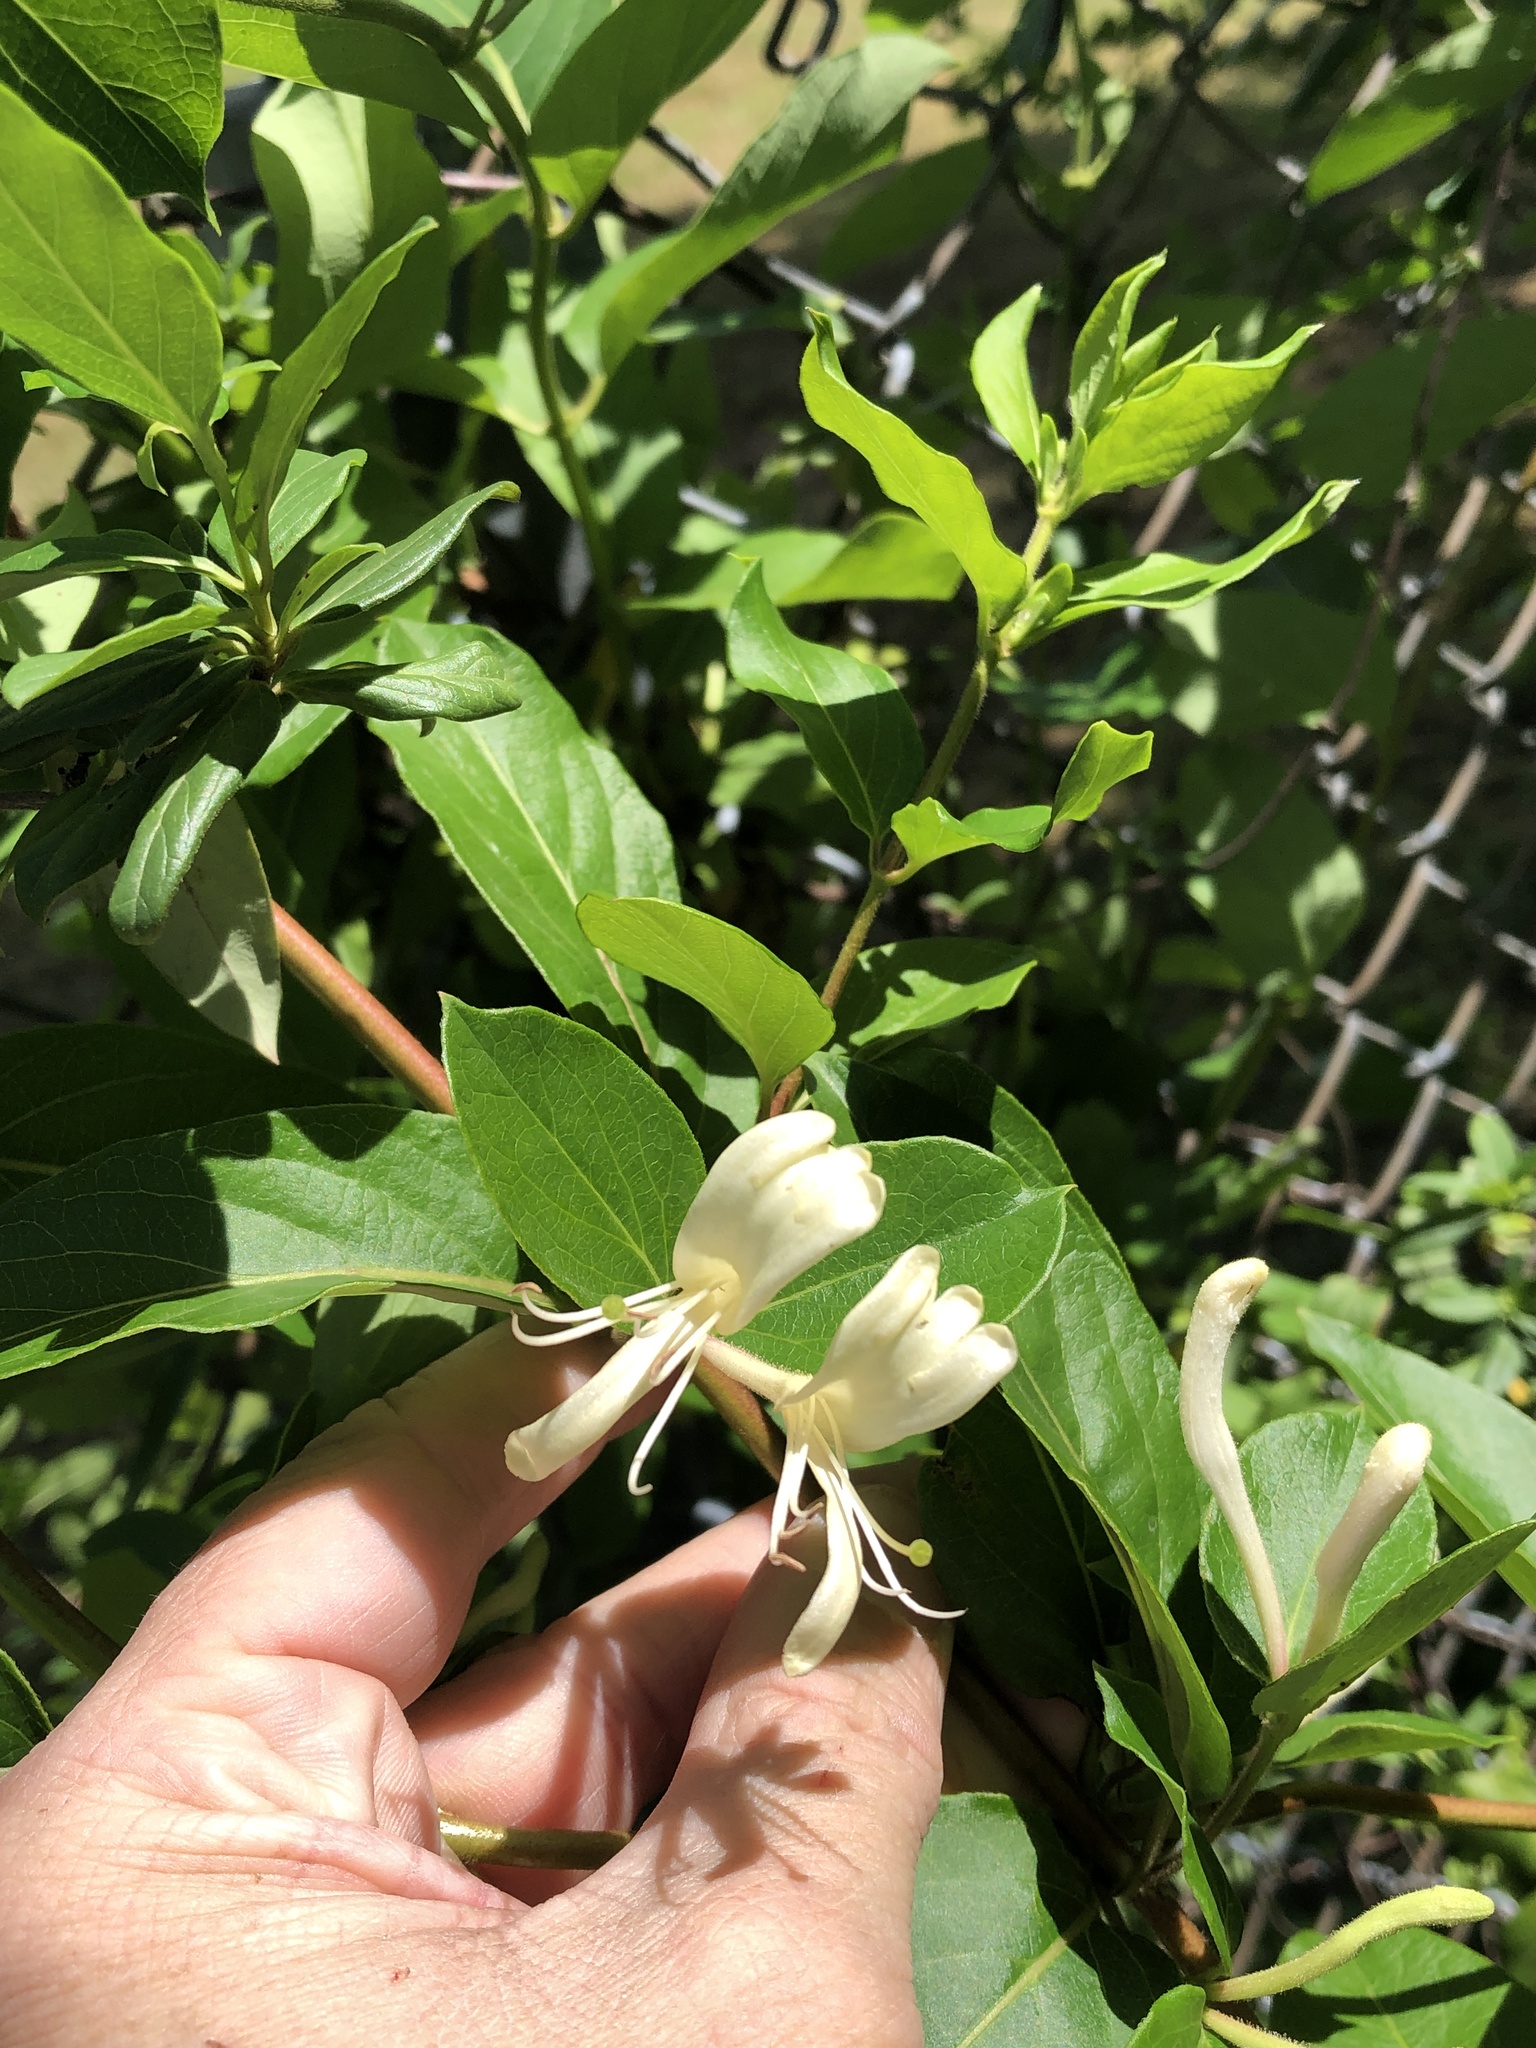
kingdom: Plantae
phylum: Tracheophyta
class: Magnoliopsida
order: Dipsacales
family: Caprifoliaceae
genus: Lonicera
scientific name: Lonicera japonica
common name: Japanese honeysuckle
